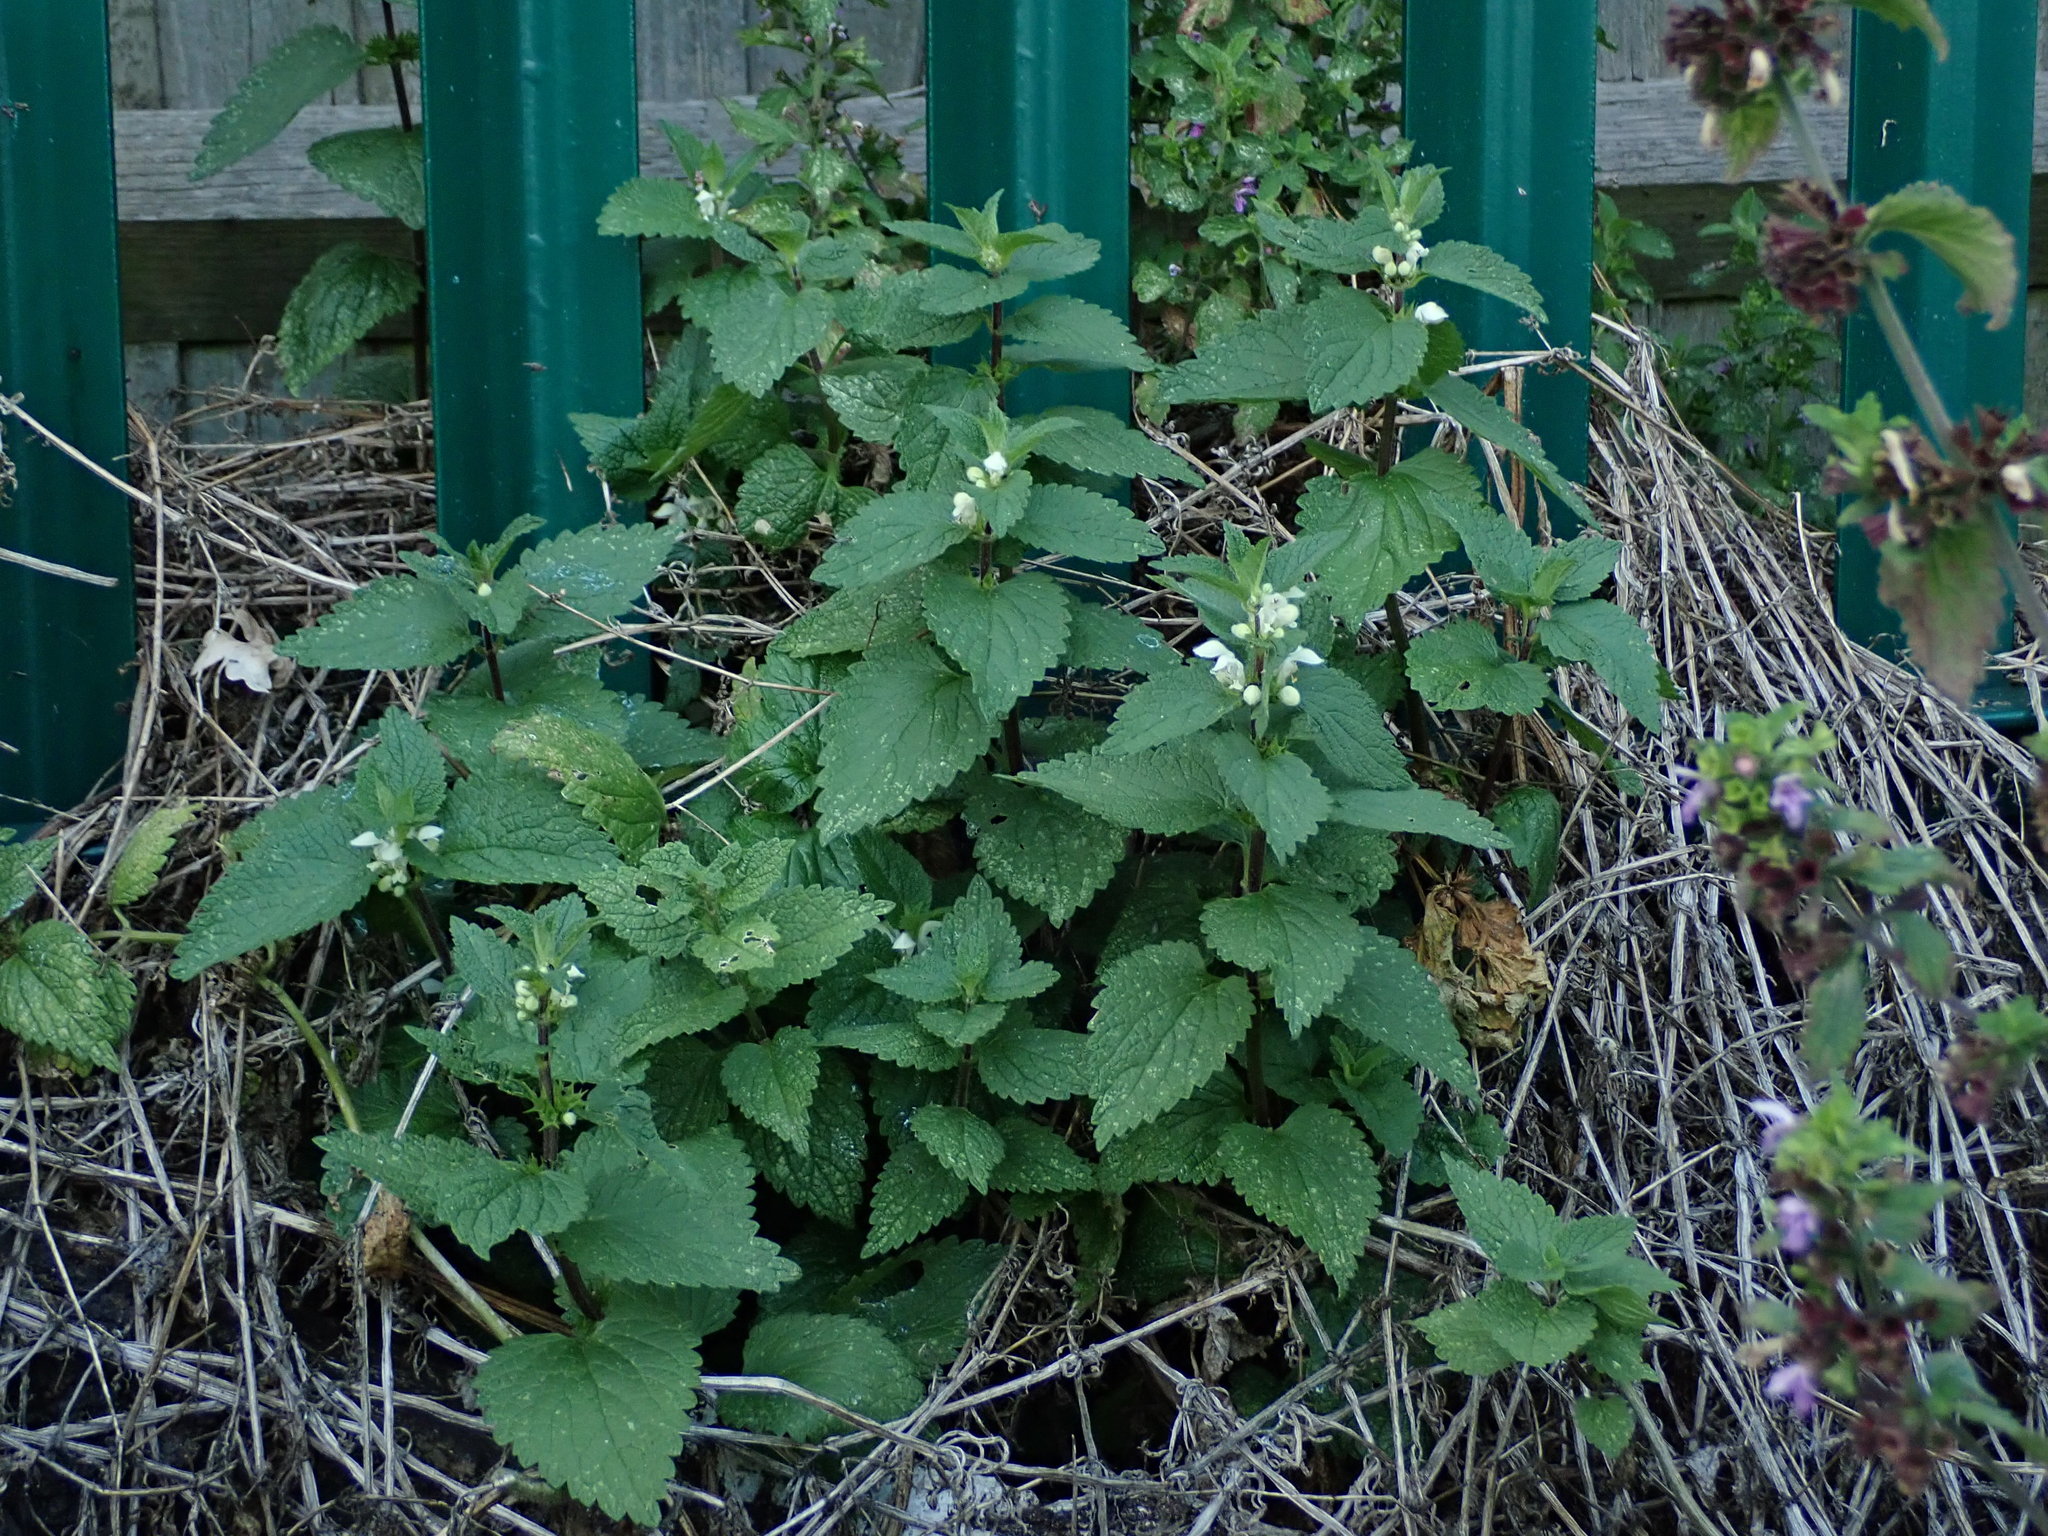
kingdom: Plantae
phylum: Tracheophyta
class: Magnoliopsida
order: Lamiales
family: Lamiaceae
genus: Lamium
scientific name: Lamium album
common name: White dead-nettle
